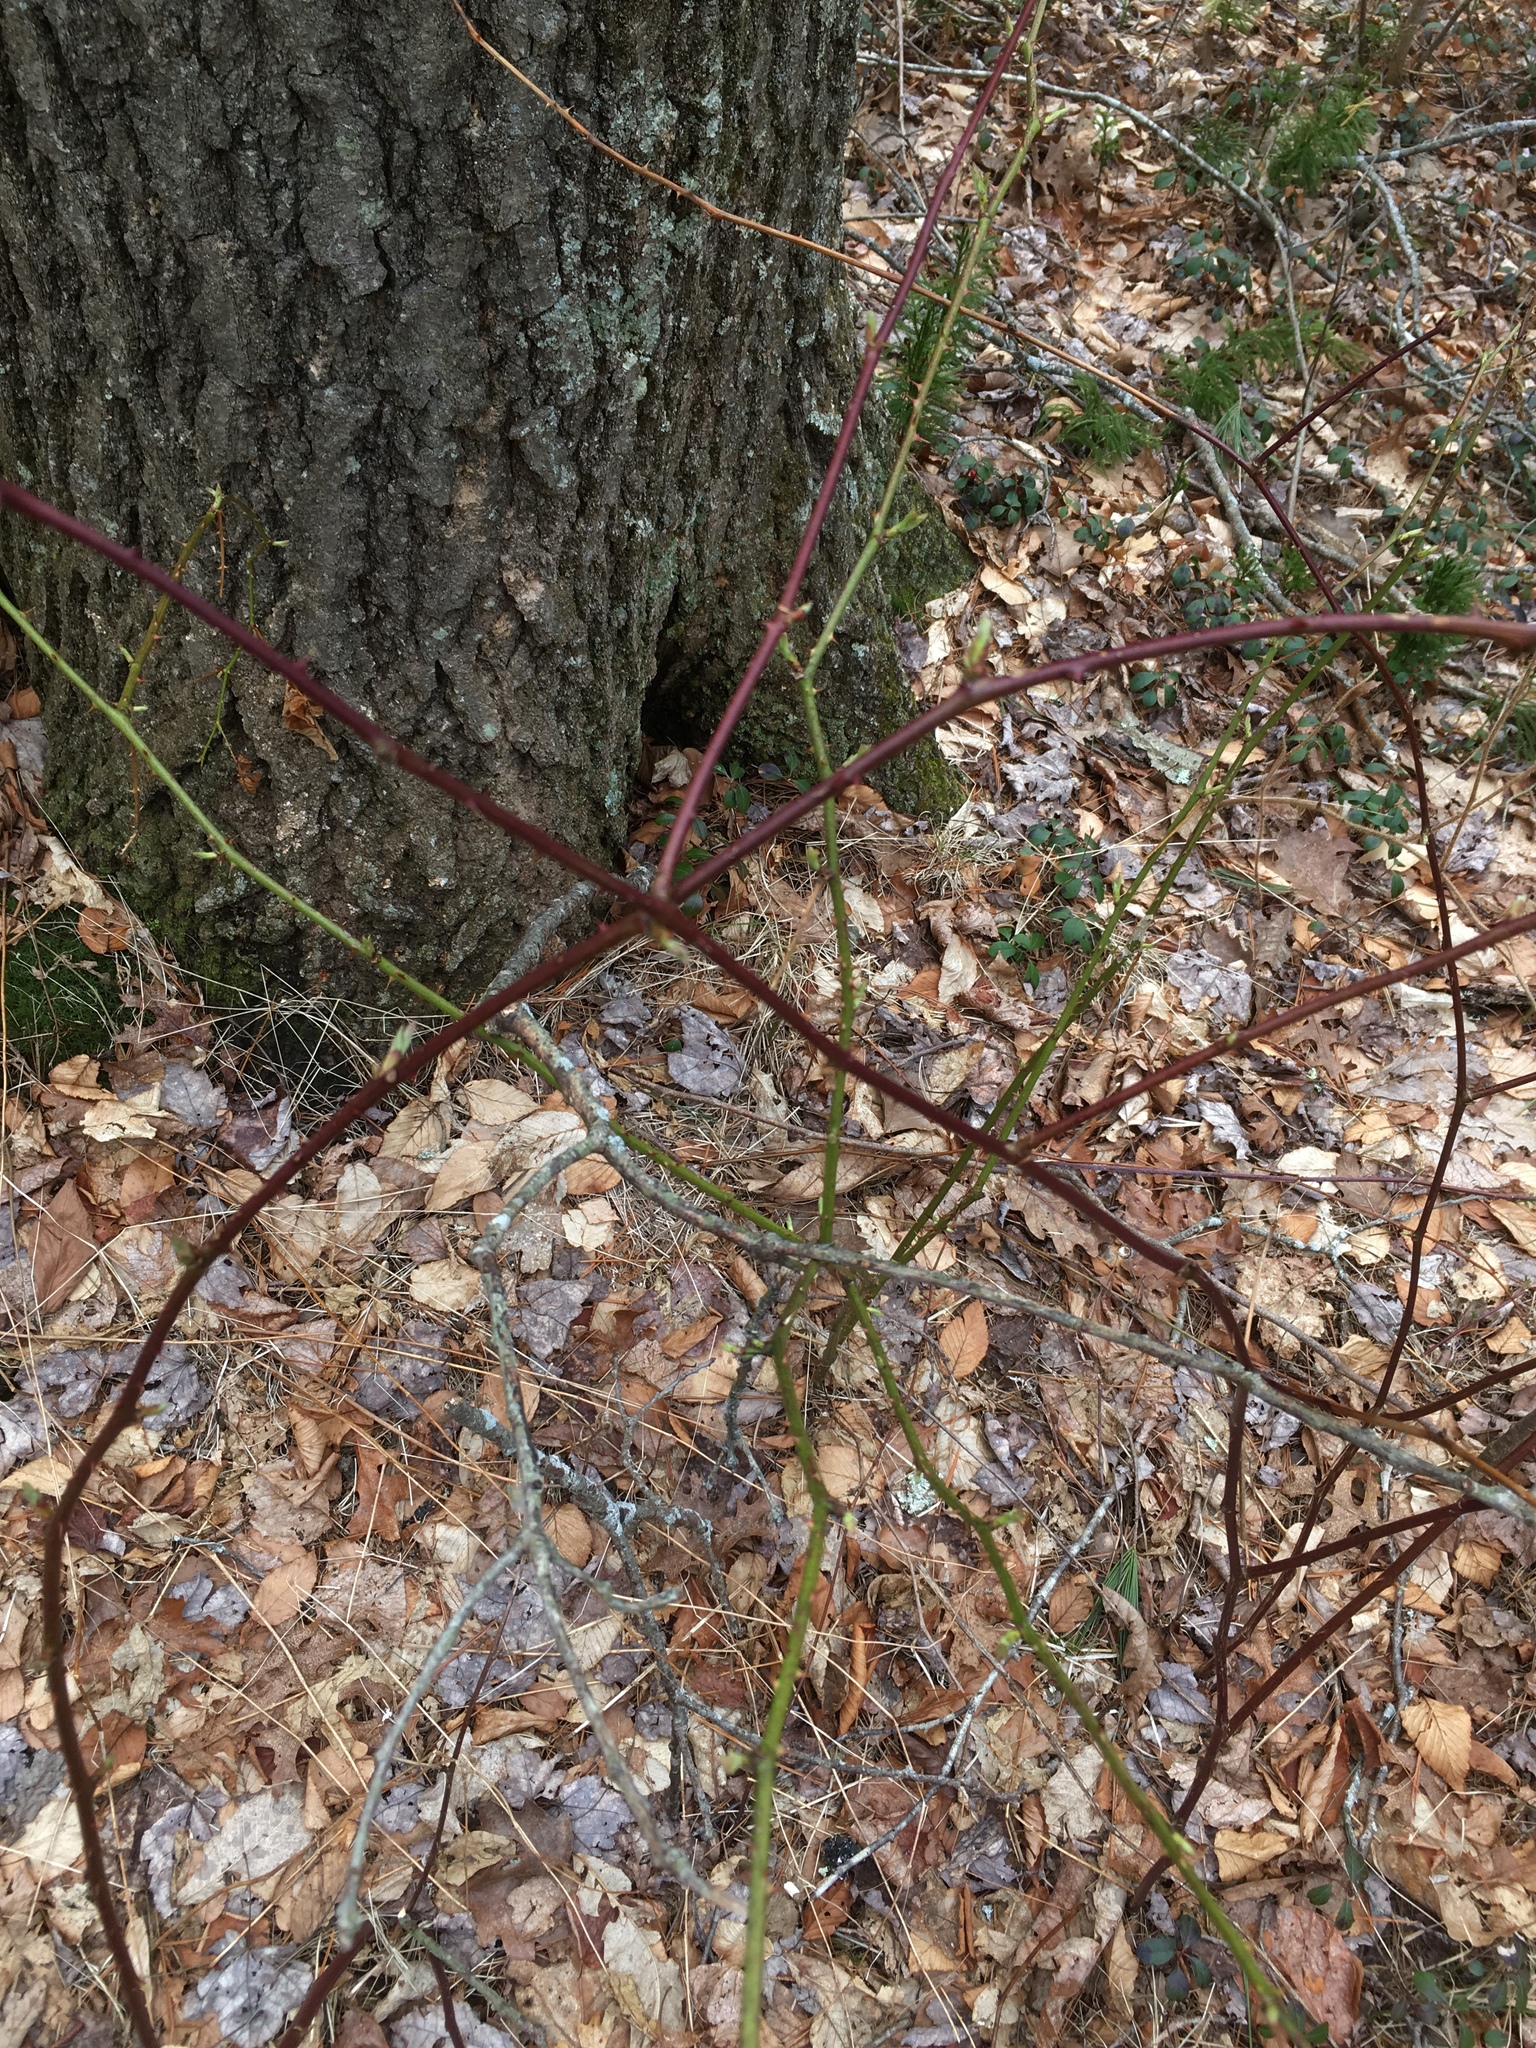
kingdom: Plantae
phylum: Tracheophyta
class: Magnoliopsida
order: Rosales
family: Rosaceae
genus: Rosa
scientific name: Rosa multiflora
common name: Multiflora rose
